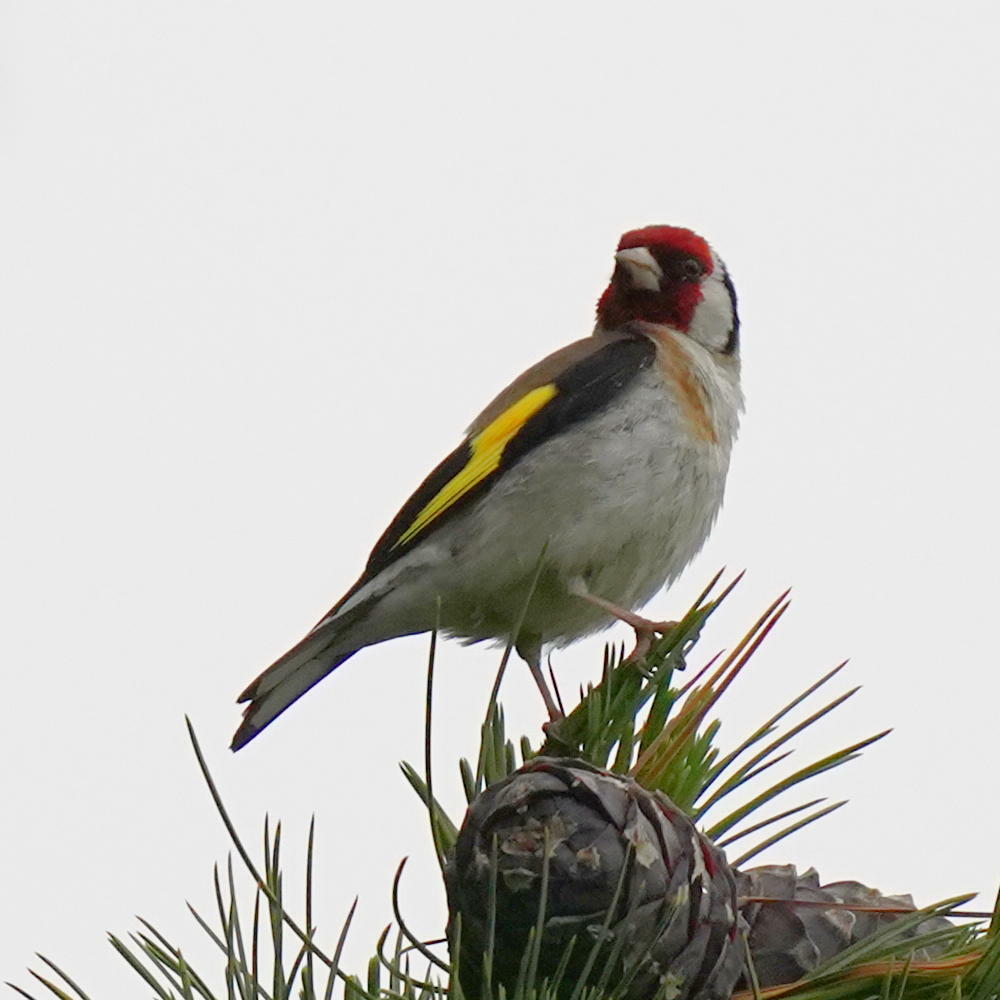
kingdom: Animalia
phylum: Chordata
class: Aves
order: Passeriformes
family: Fringillidae
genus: Carduelis
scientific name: Carduelis carduelis
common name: European goldfinch
